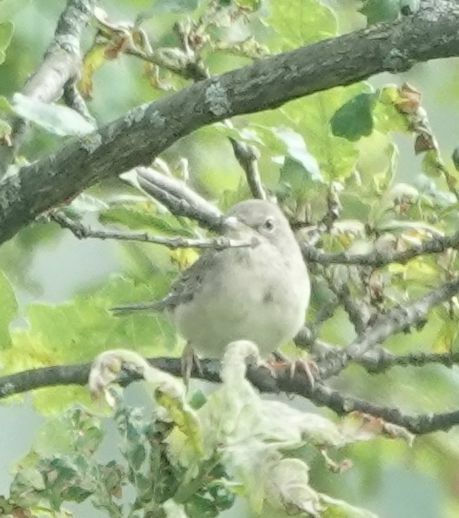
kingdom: Animalia
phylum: Chordata
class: Aves
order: Passeriformes
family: Sylviidae
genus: Sylvia
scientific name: Sylvia communis
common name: Common whitethroat
